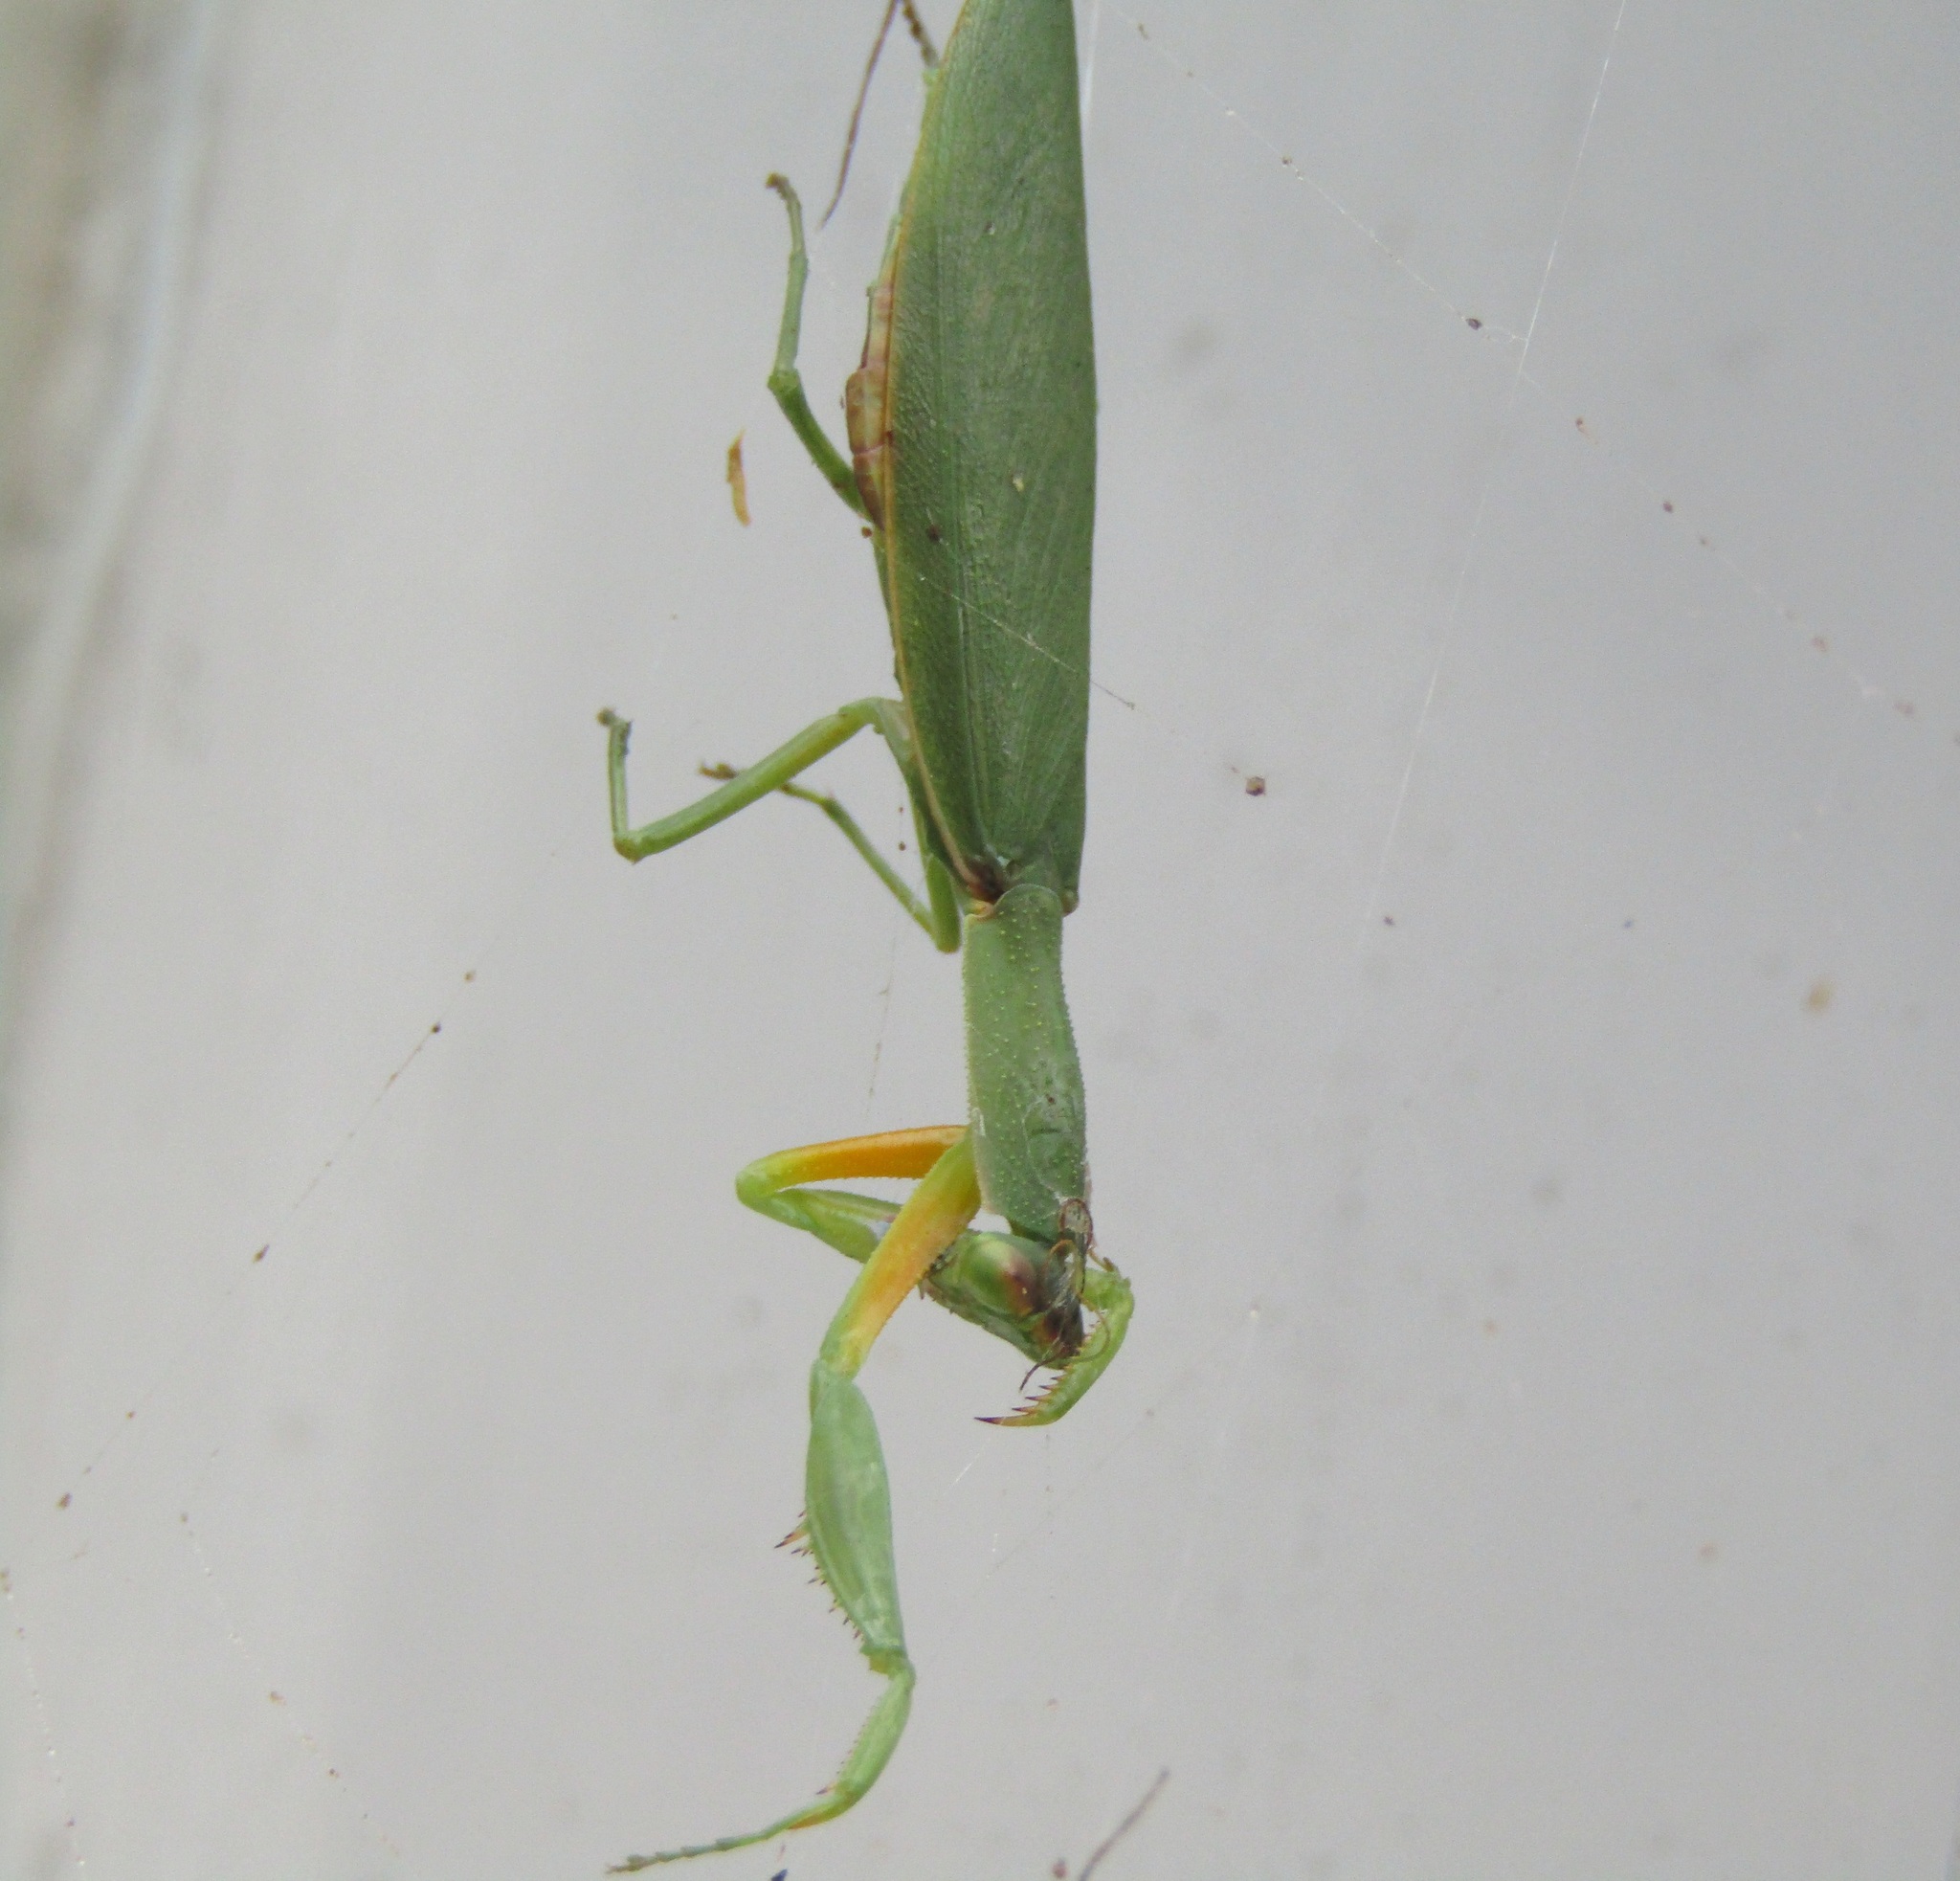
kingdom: Animalia
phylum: Arthropoda
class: Insecta
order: Mantodea
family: Mantidae
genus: Orthodera
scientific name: Orthodera novaezealandiae
